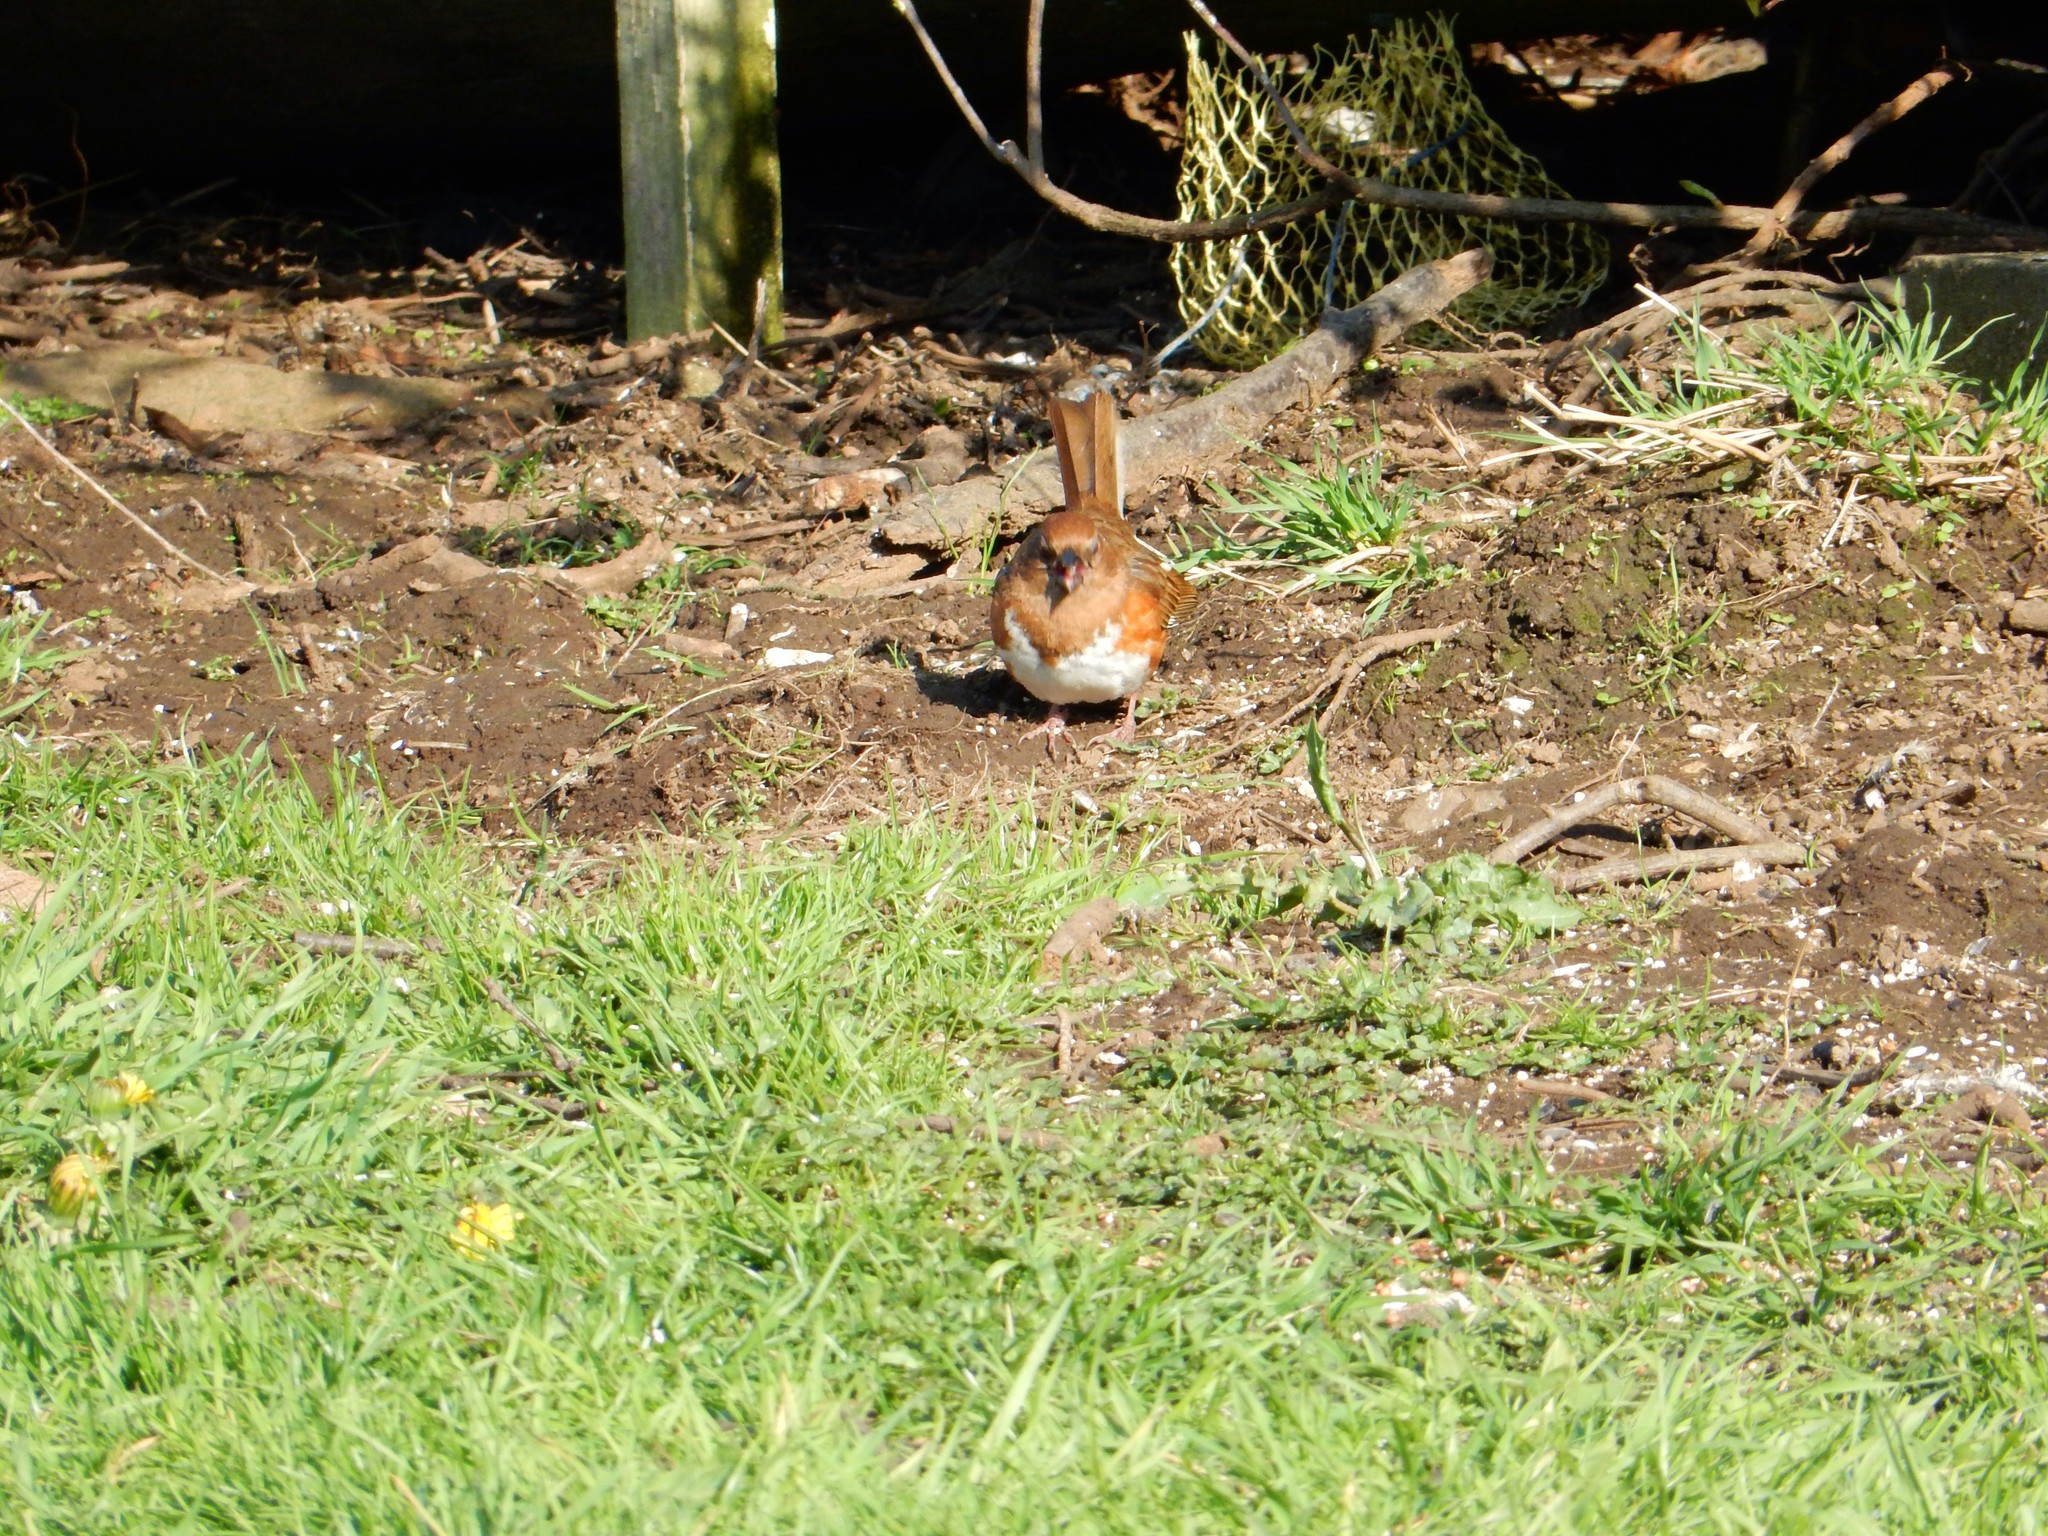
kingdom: Animalia
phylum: Chordata
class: Aves
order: Passeriformes
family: Passerellidae
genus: Pipilo
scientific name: Pipilo erythrophthalmus
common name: Eastern towhee
